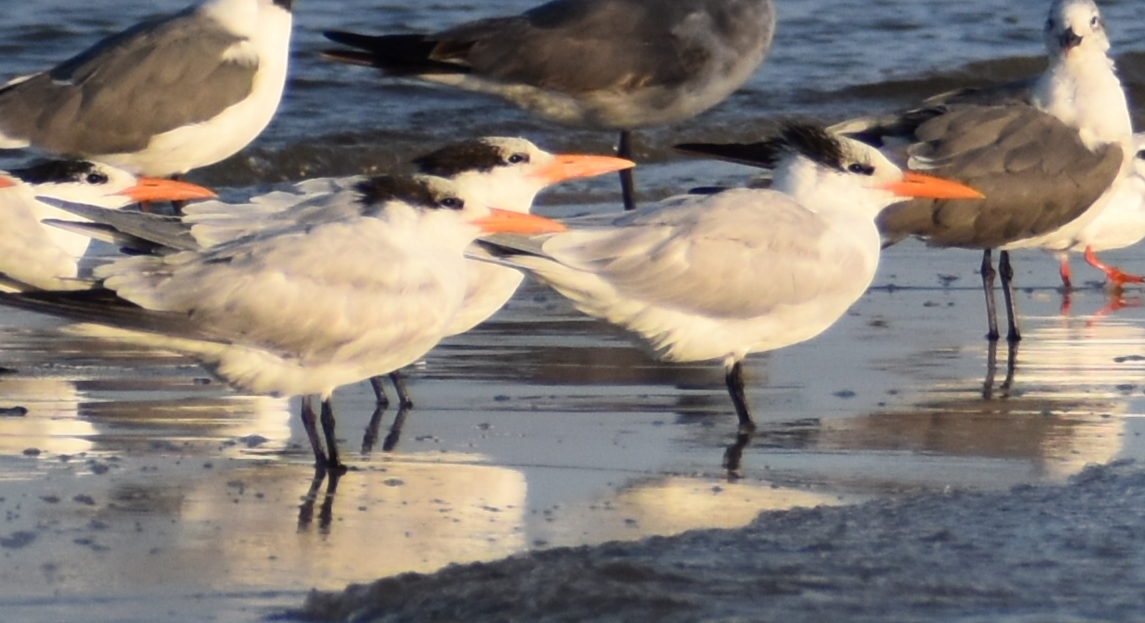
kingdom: Animalia
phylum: Chordata
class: Aves
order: Charadriiformes
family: Laridae
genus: Thalasseus
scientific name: Thalasseus maximus
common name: Royal tern
